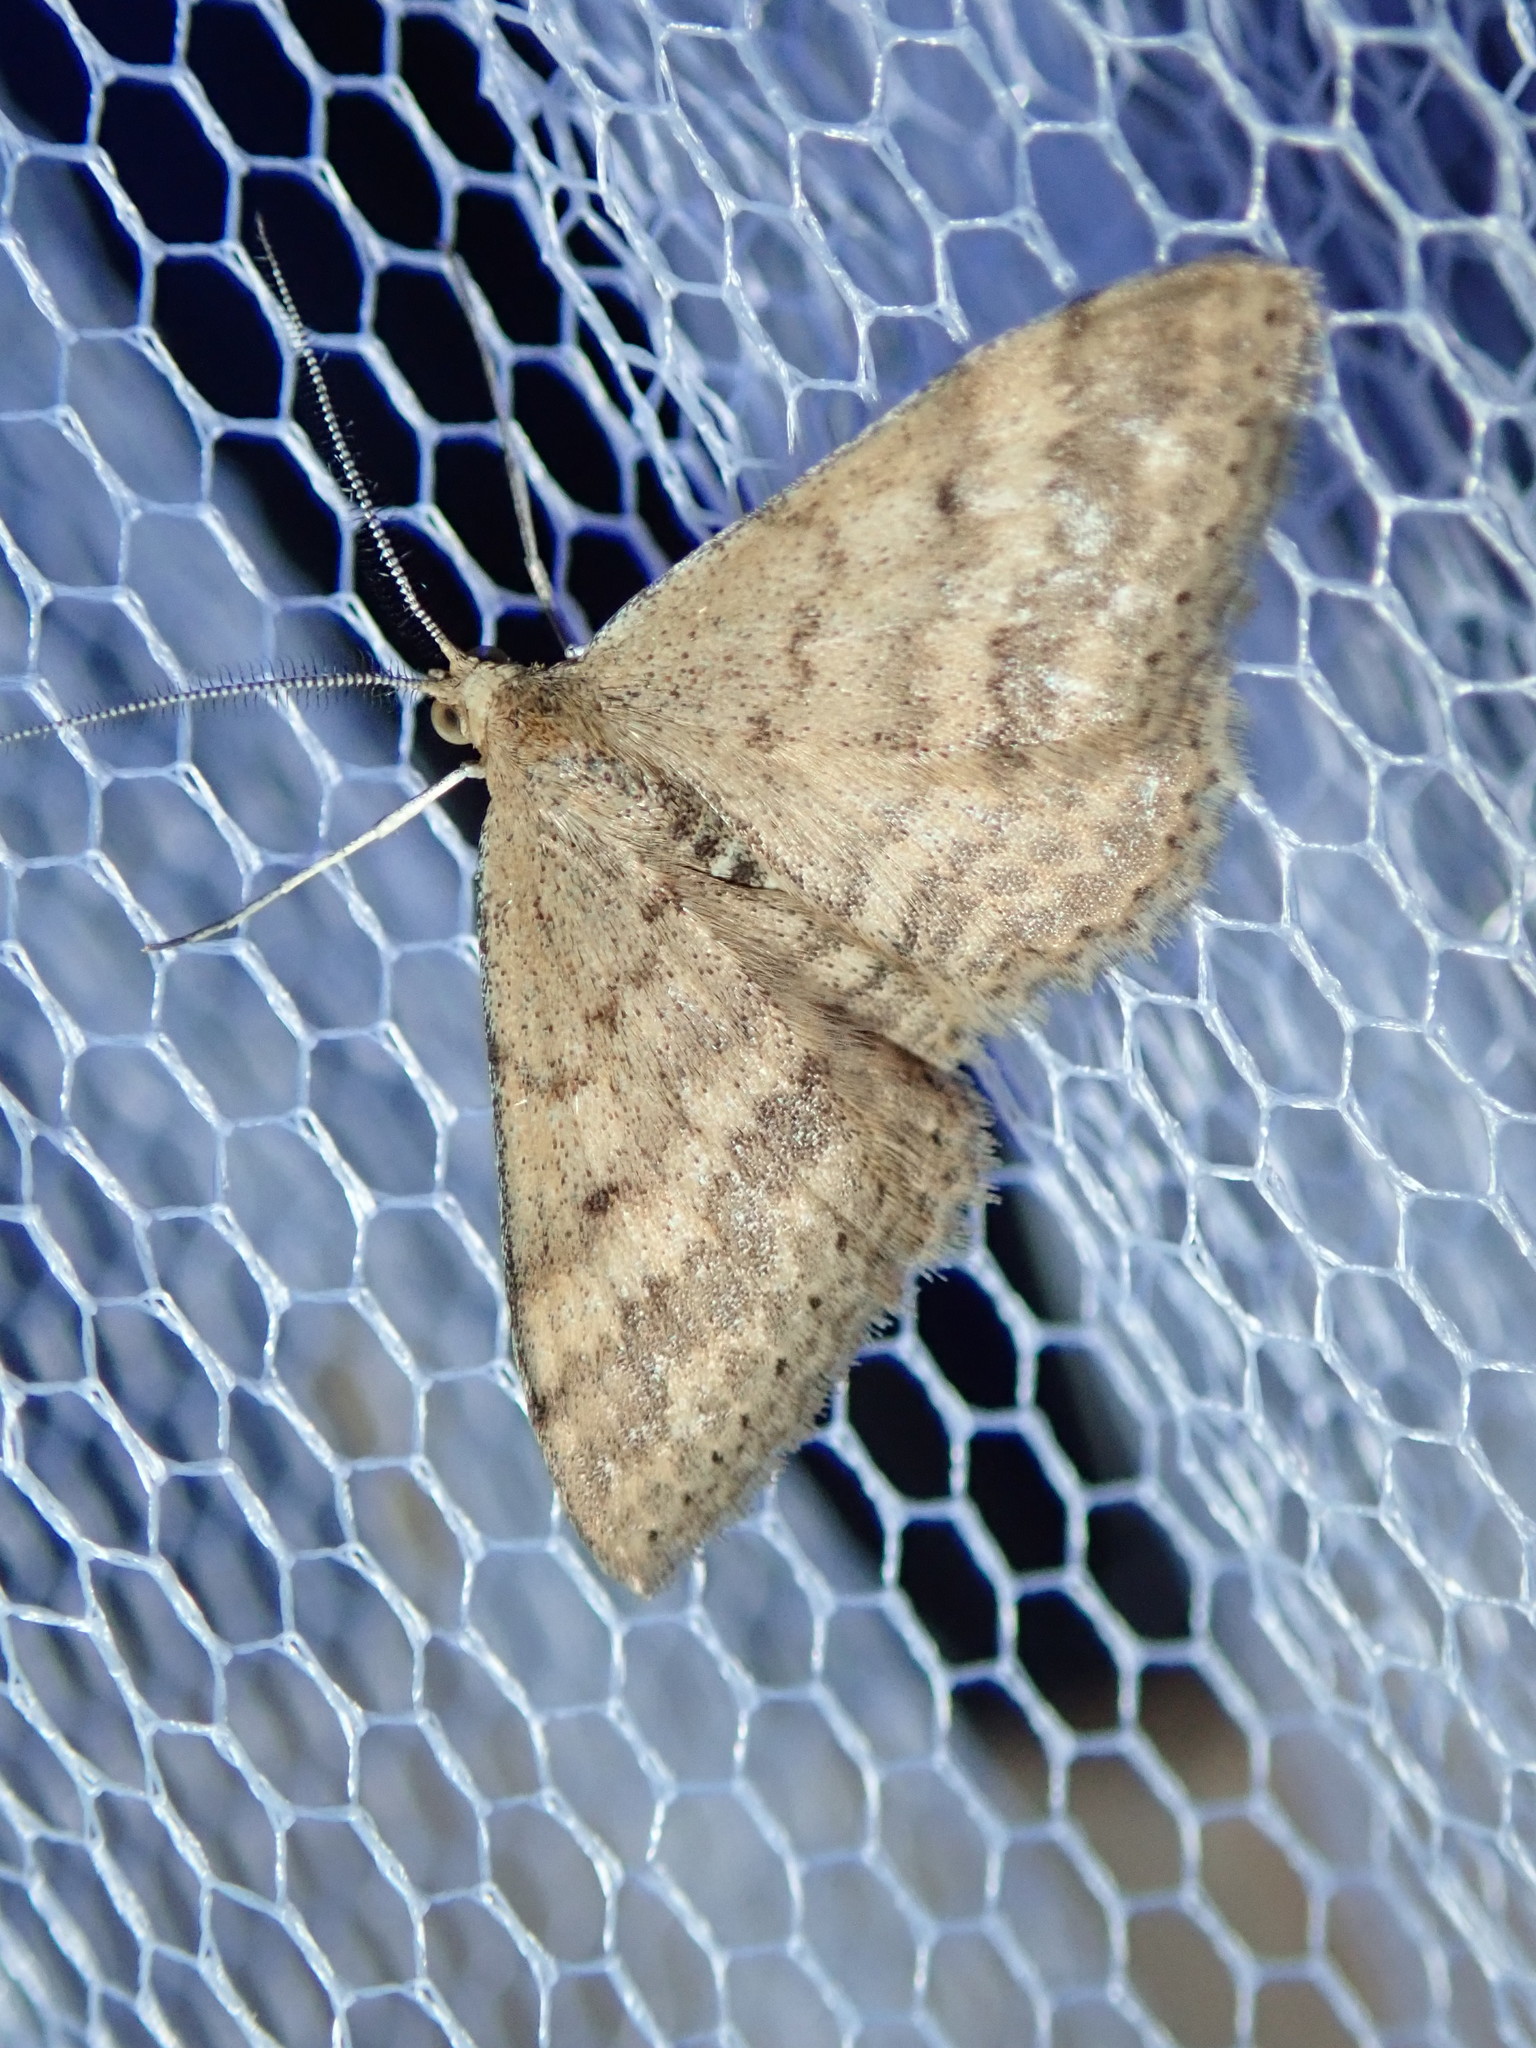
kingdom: Animalia
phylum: Arthropoda
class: Insecta
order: Lepidoptera
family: Geometridae
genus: Scopula
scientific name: Scopula rubraria
